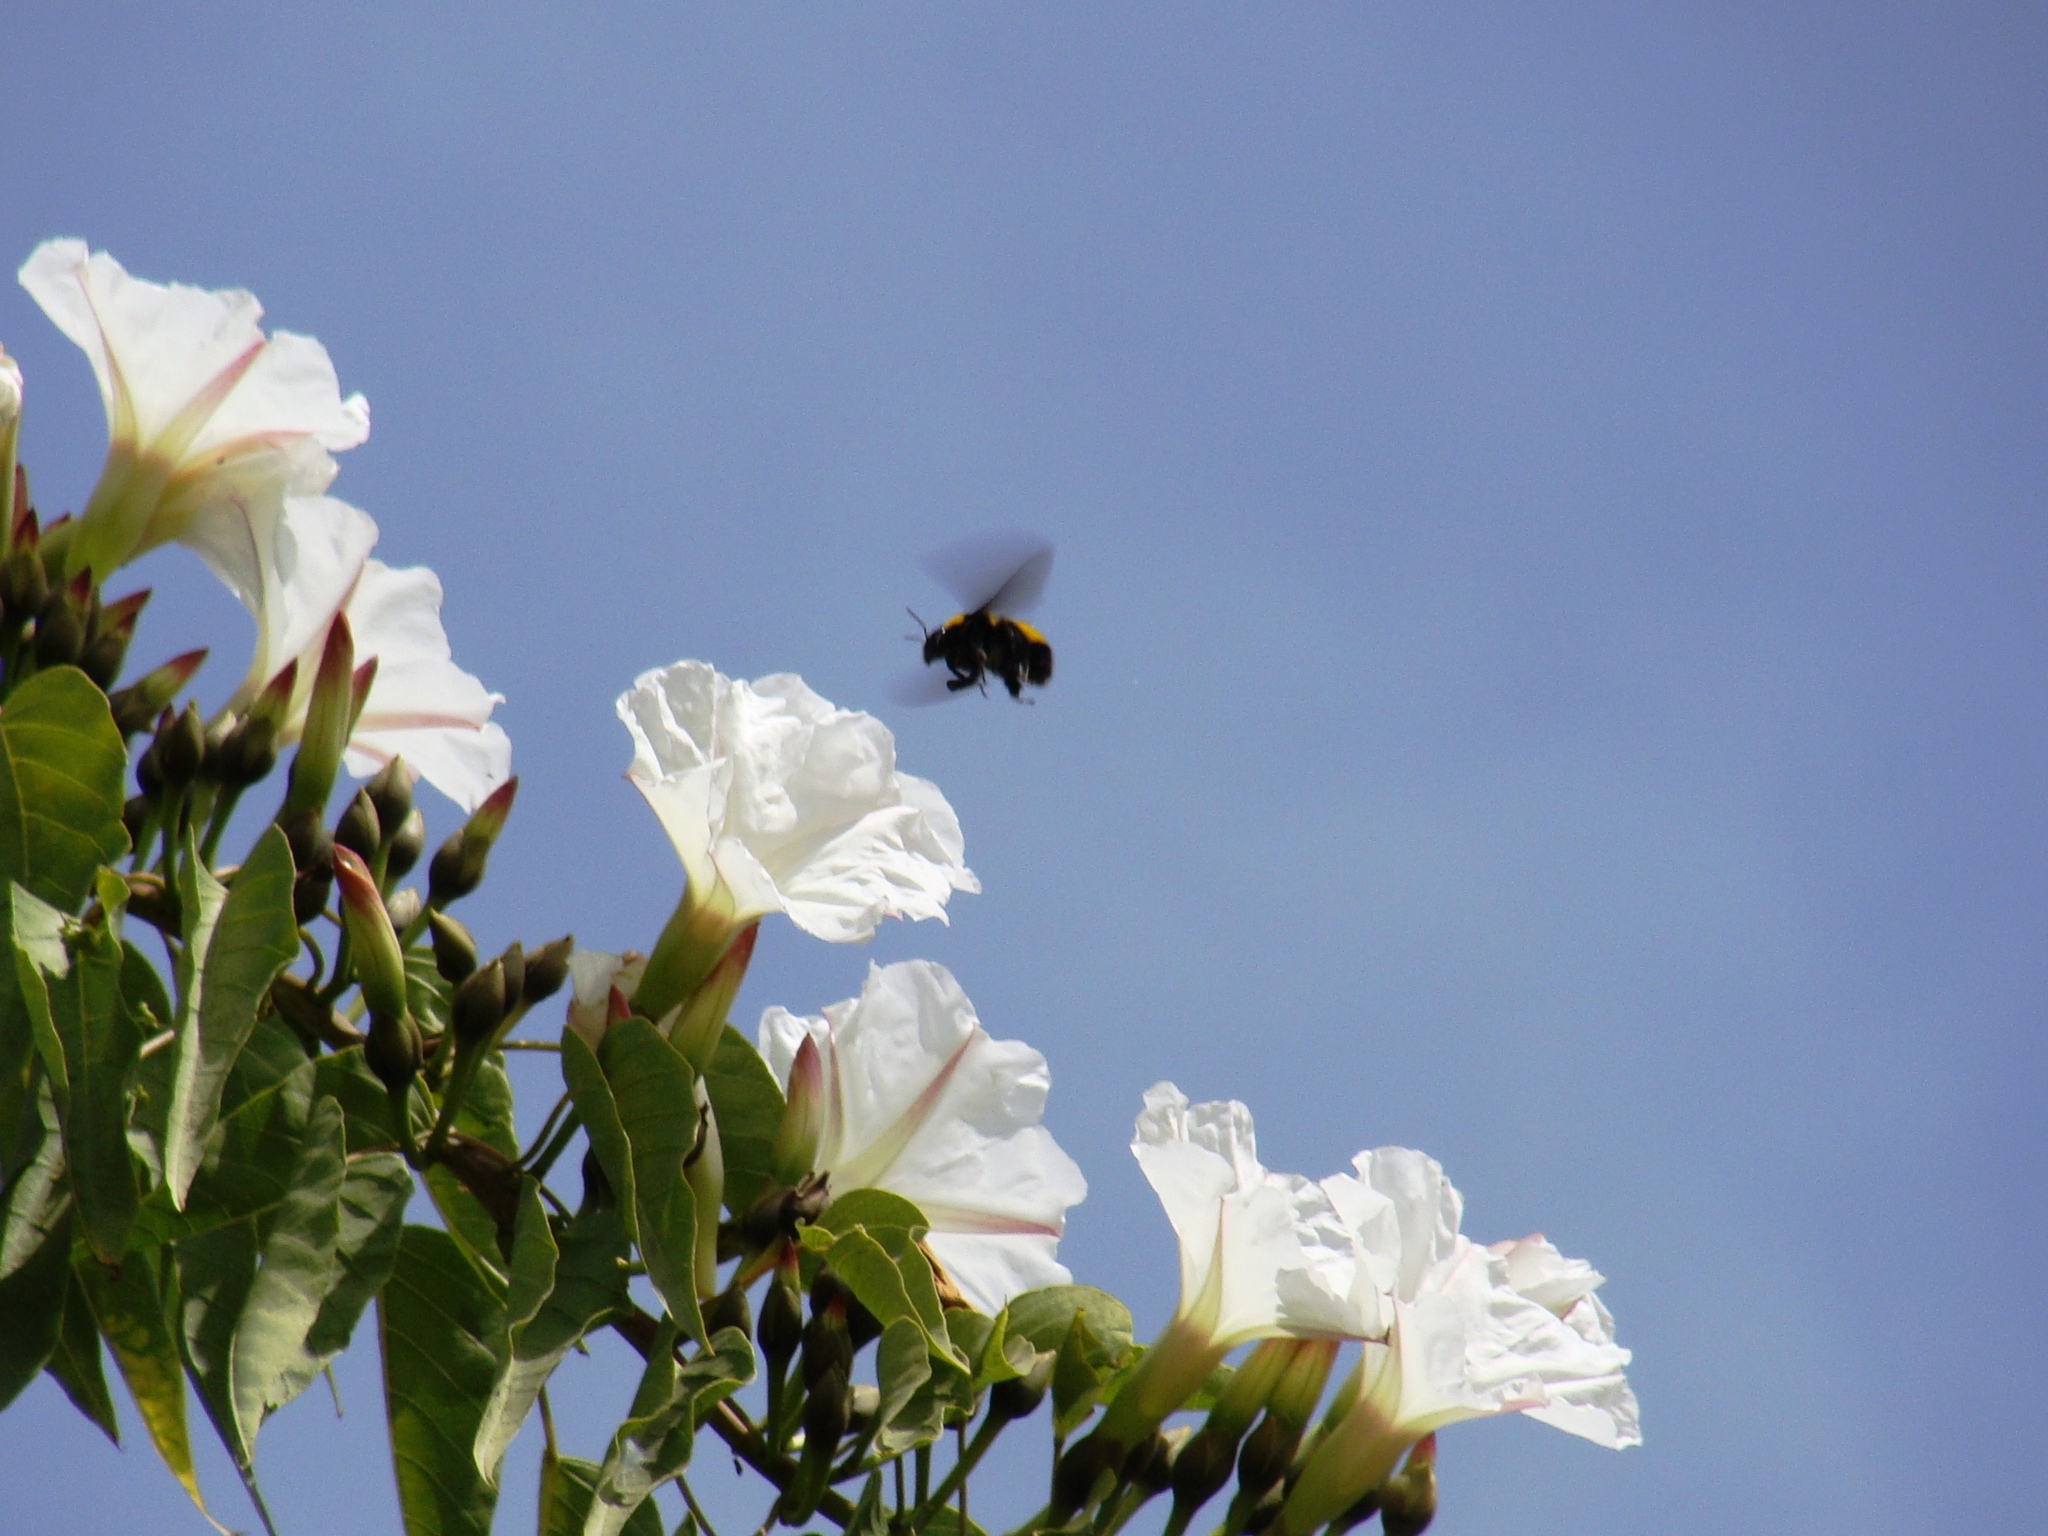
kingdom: Plantae
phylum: Tracheophyta
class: Magnoliopsida
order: Solanales
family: Convolvulaceae
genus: Ipomoea
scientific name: Ipomoea pauciflora
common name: Tree morningglory
